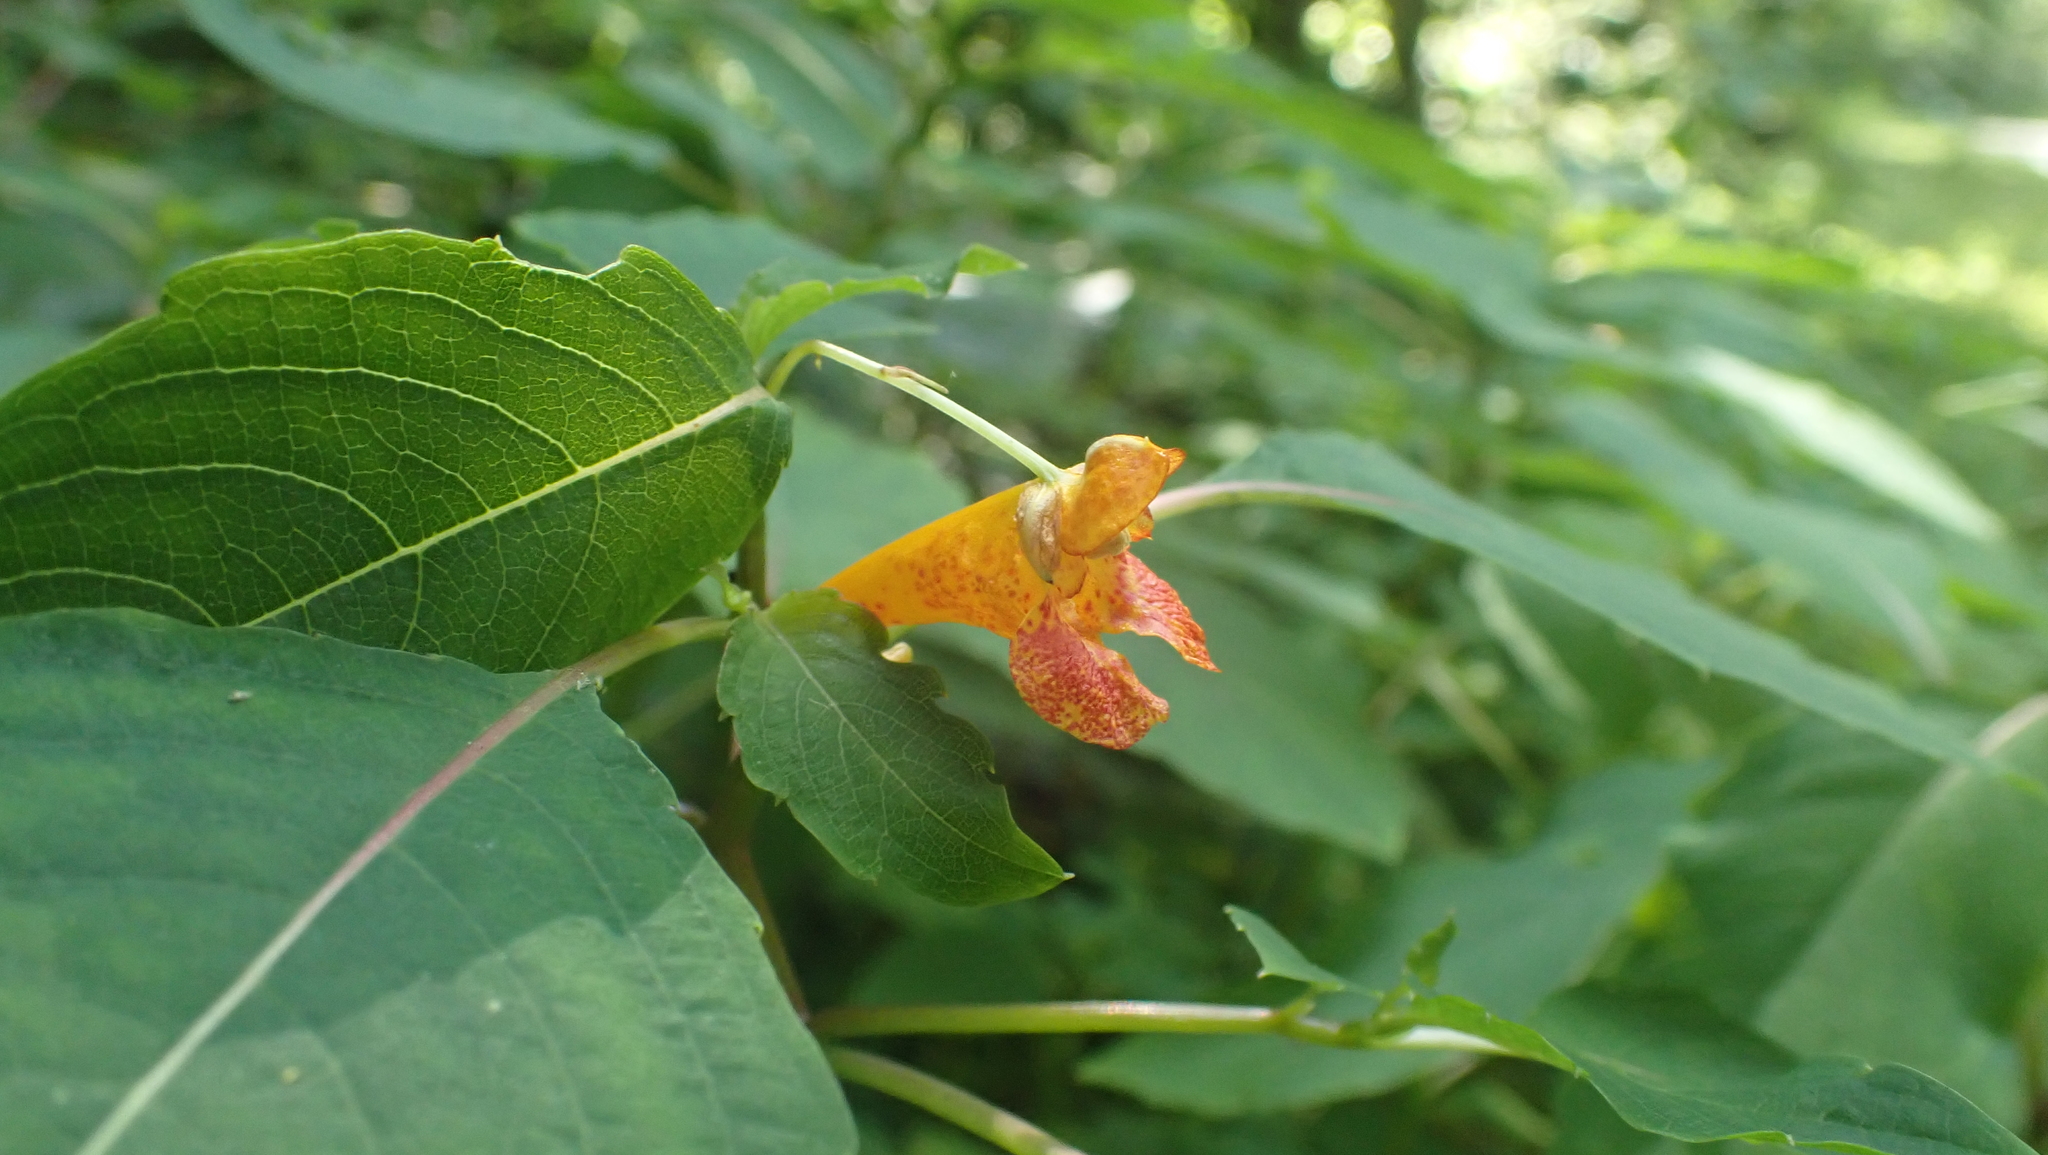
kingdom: Plantae
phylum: Tracheophyta
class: Magnoliopsida
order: Ericales
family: Balsaminaceae
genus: Impatiens
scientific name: Impatiens capensis
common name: Orange balsam
